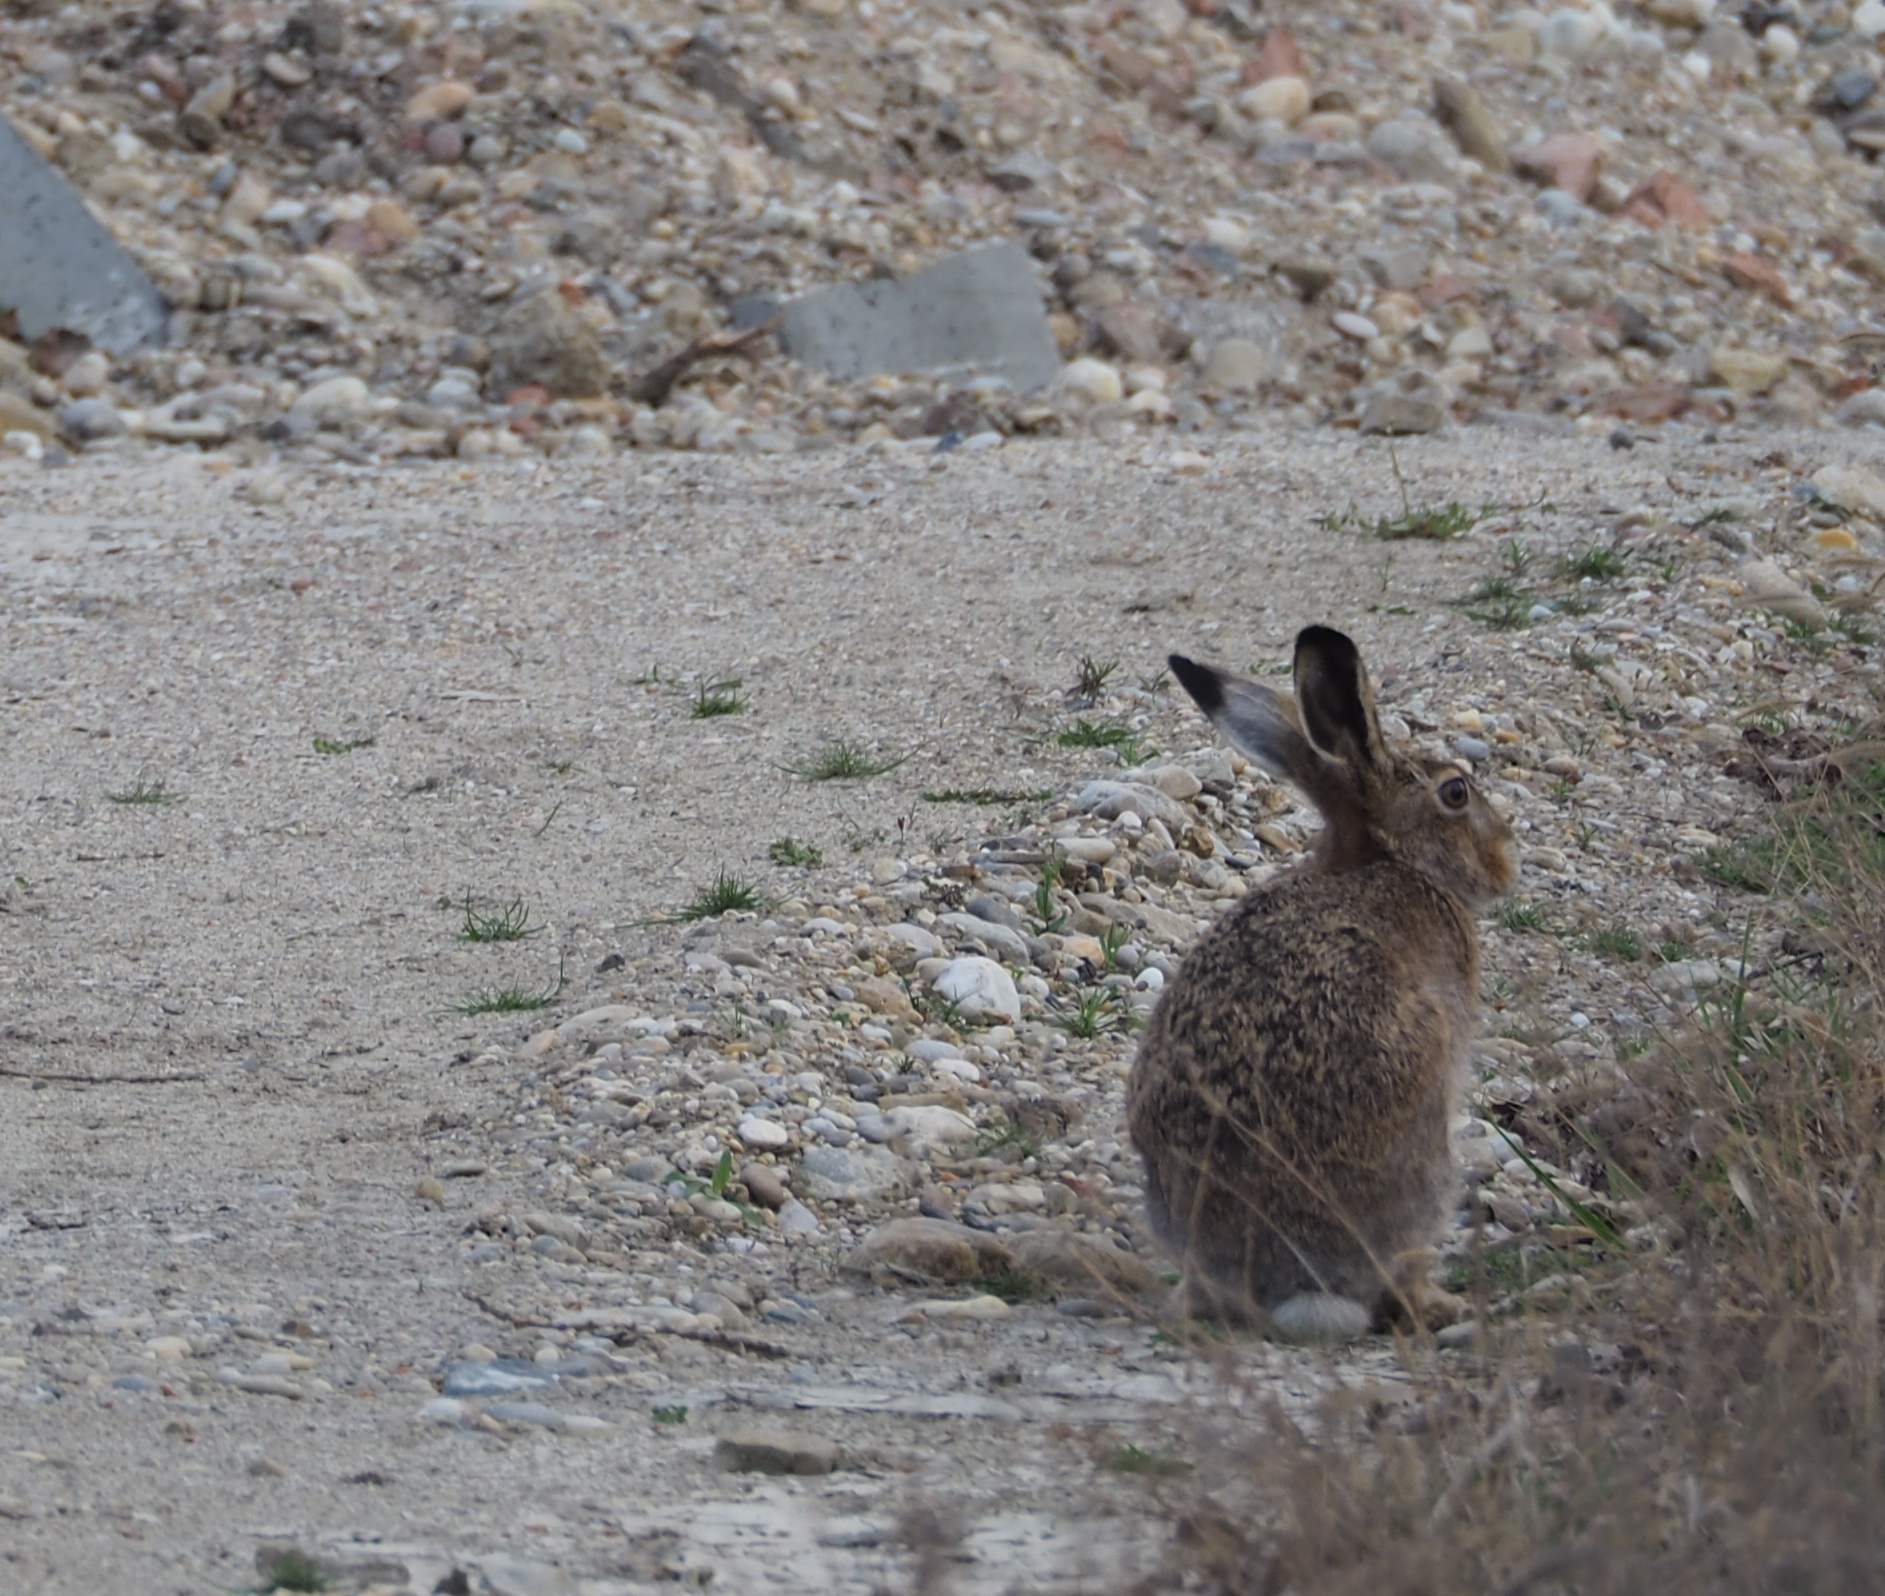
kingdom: Animalia
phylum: Chordata
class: Mammalia
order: Lagomorpha
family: Leporidae
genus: Lepus
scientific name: Lepus europaeus
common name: European hare
